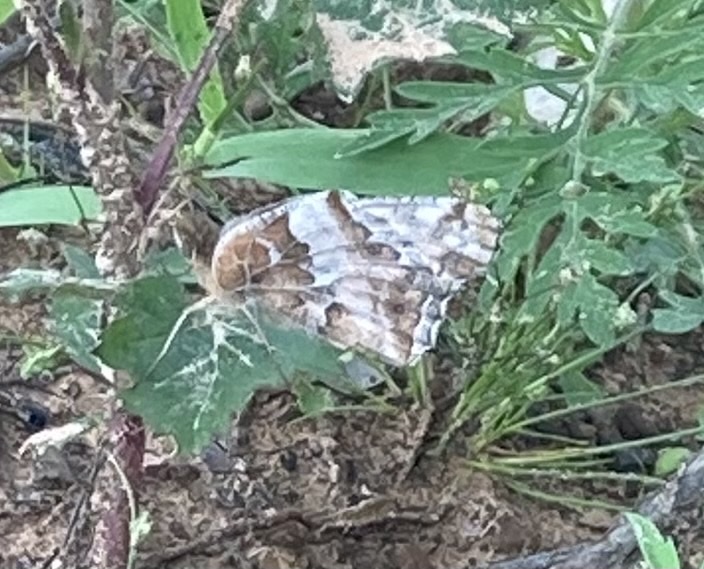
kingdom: Animalia
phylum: Arthropoda
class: Insecta
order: Lepidoptera
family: Nymphalidae
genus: Euptoieta
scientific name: Euptoieta claudia
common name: Variegated fritillary
